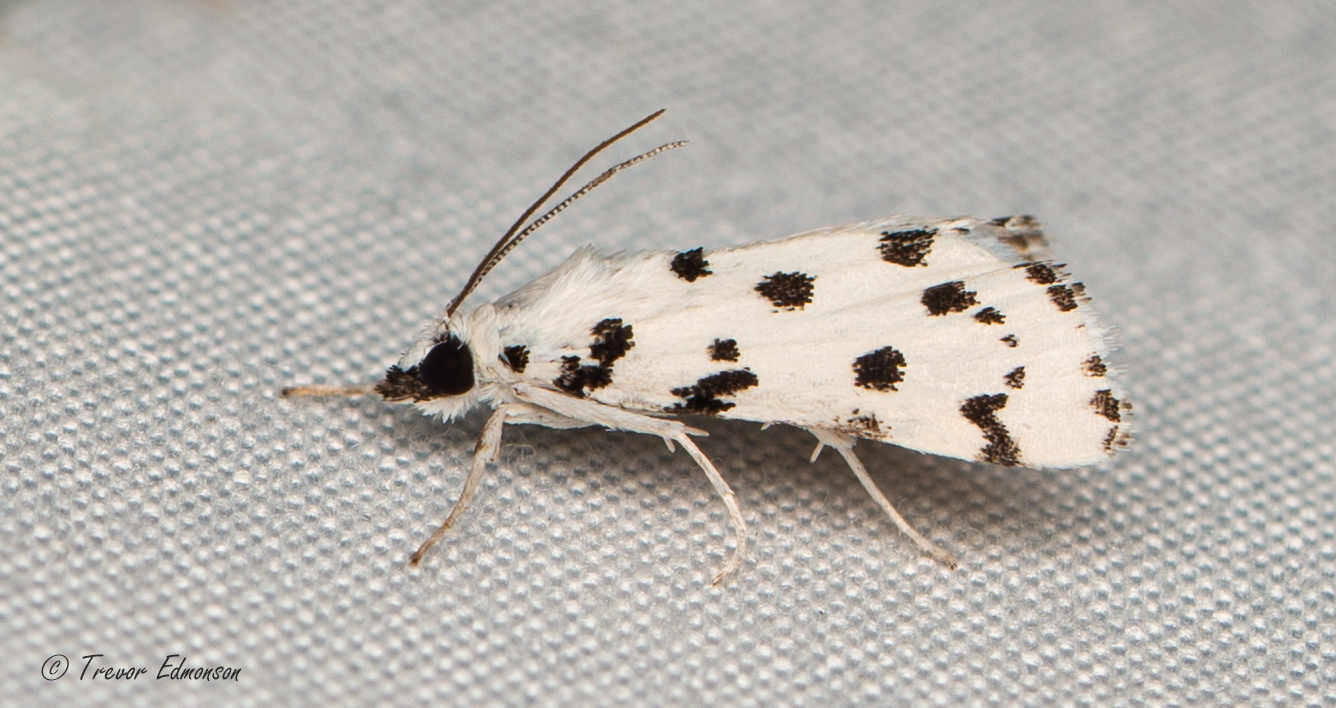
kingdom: Animalia
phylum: Arthropoda
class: Insecta
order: Lepidoptera
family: Crambidae
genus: Eustixia
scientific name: Eustixia pupula
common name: American cabbage pearl
